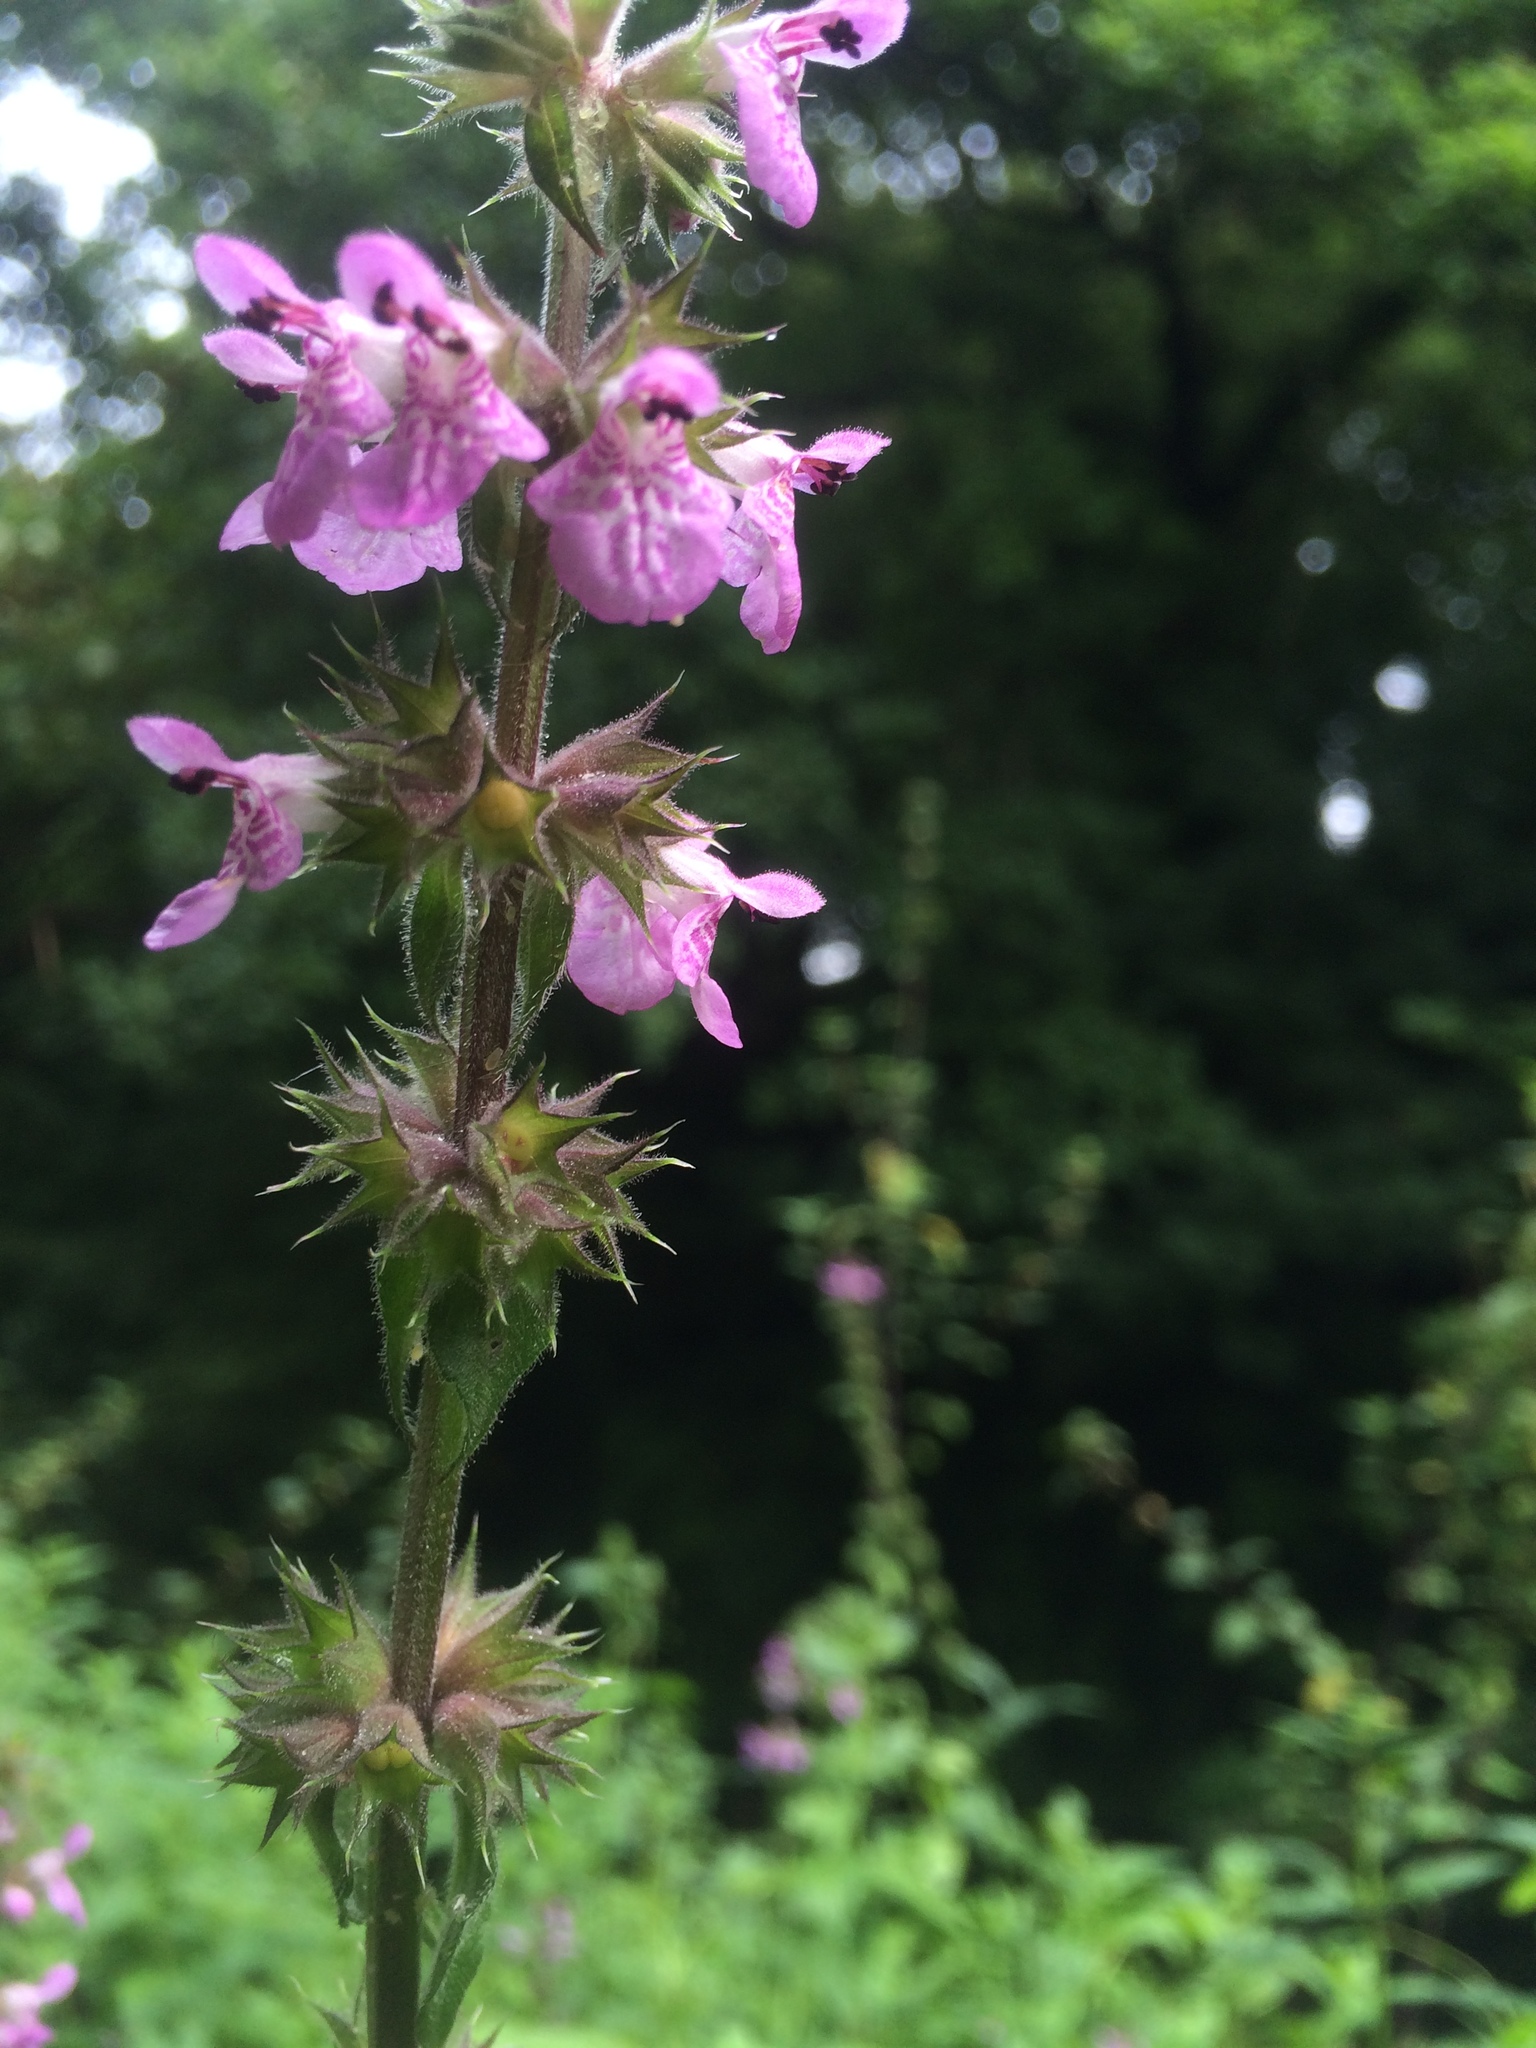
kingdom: Plantae
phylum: Tracheophyta
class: Magnoliopsida
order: Lamiales
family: Lamiaceae
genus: Stachys
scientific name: Stachys palustris
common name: Marsh woundwort
